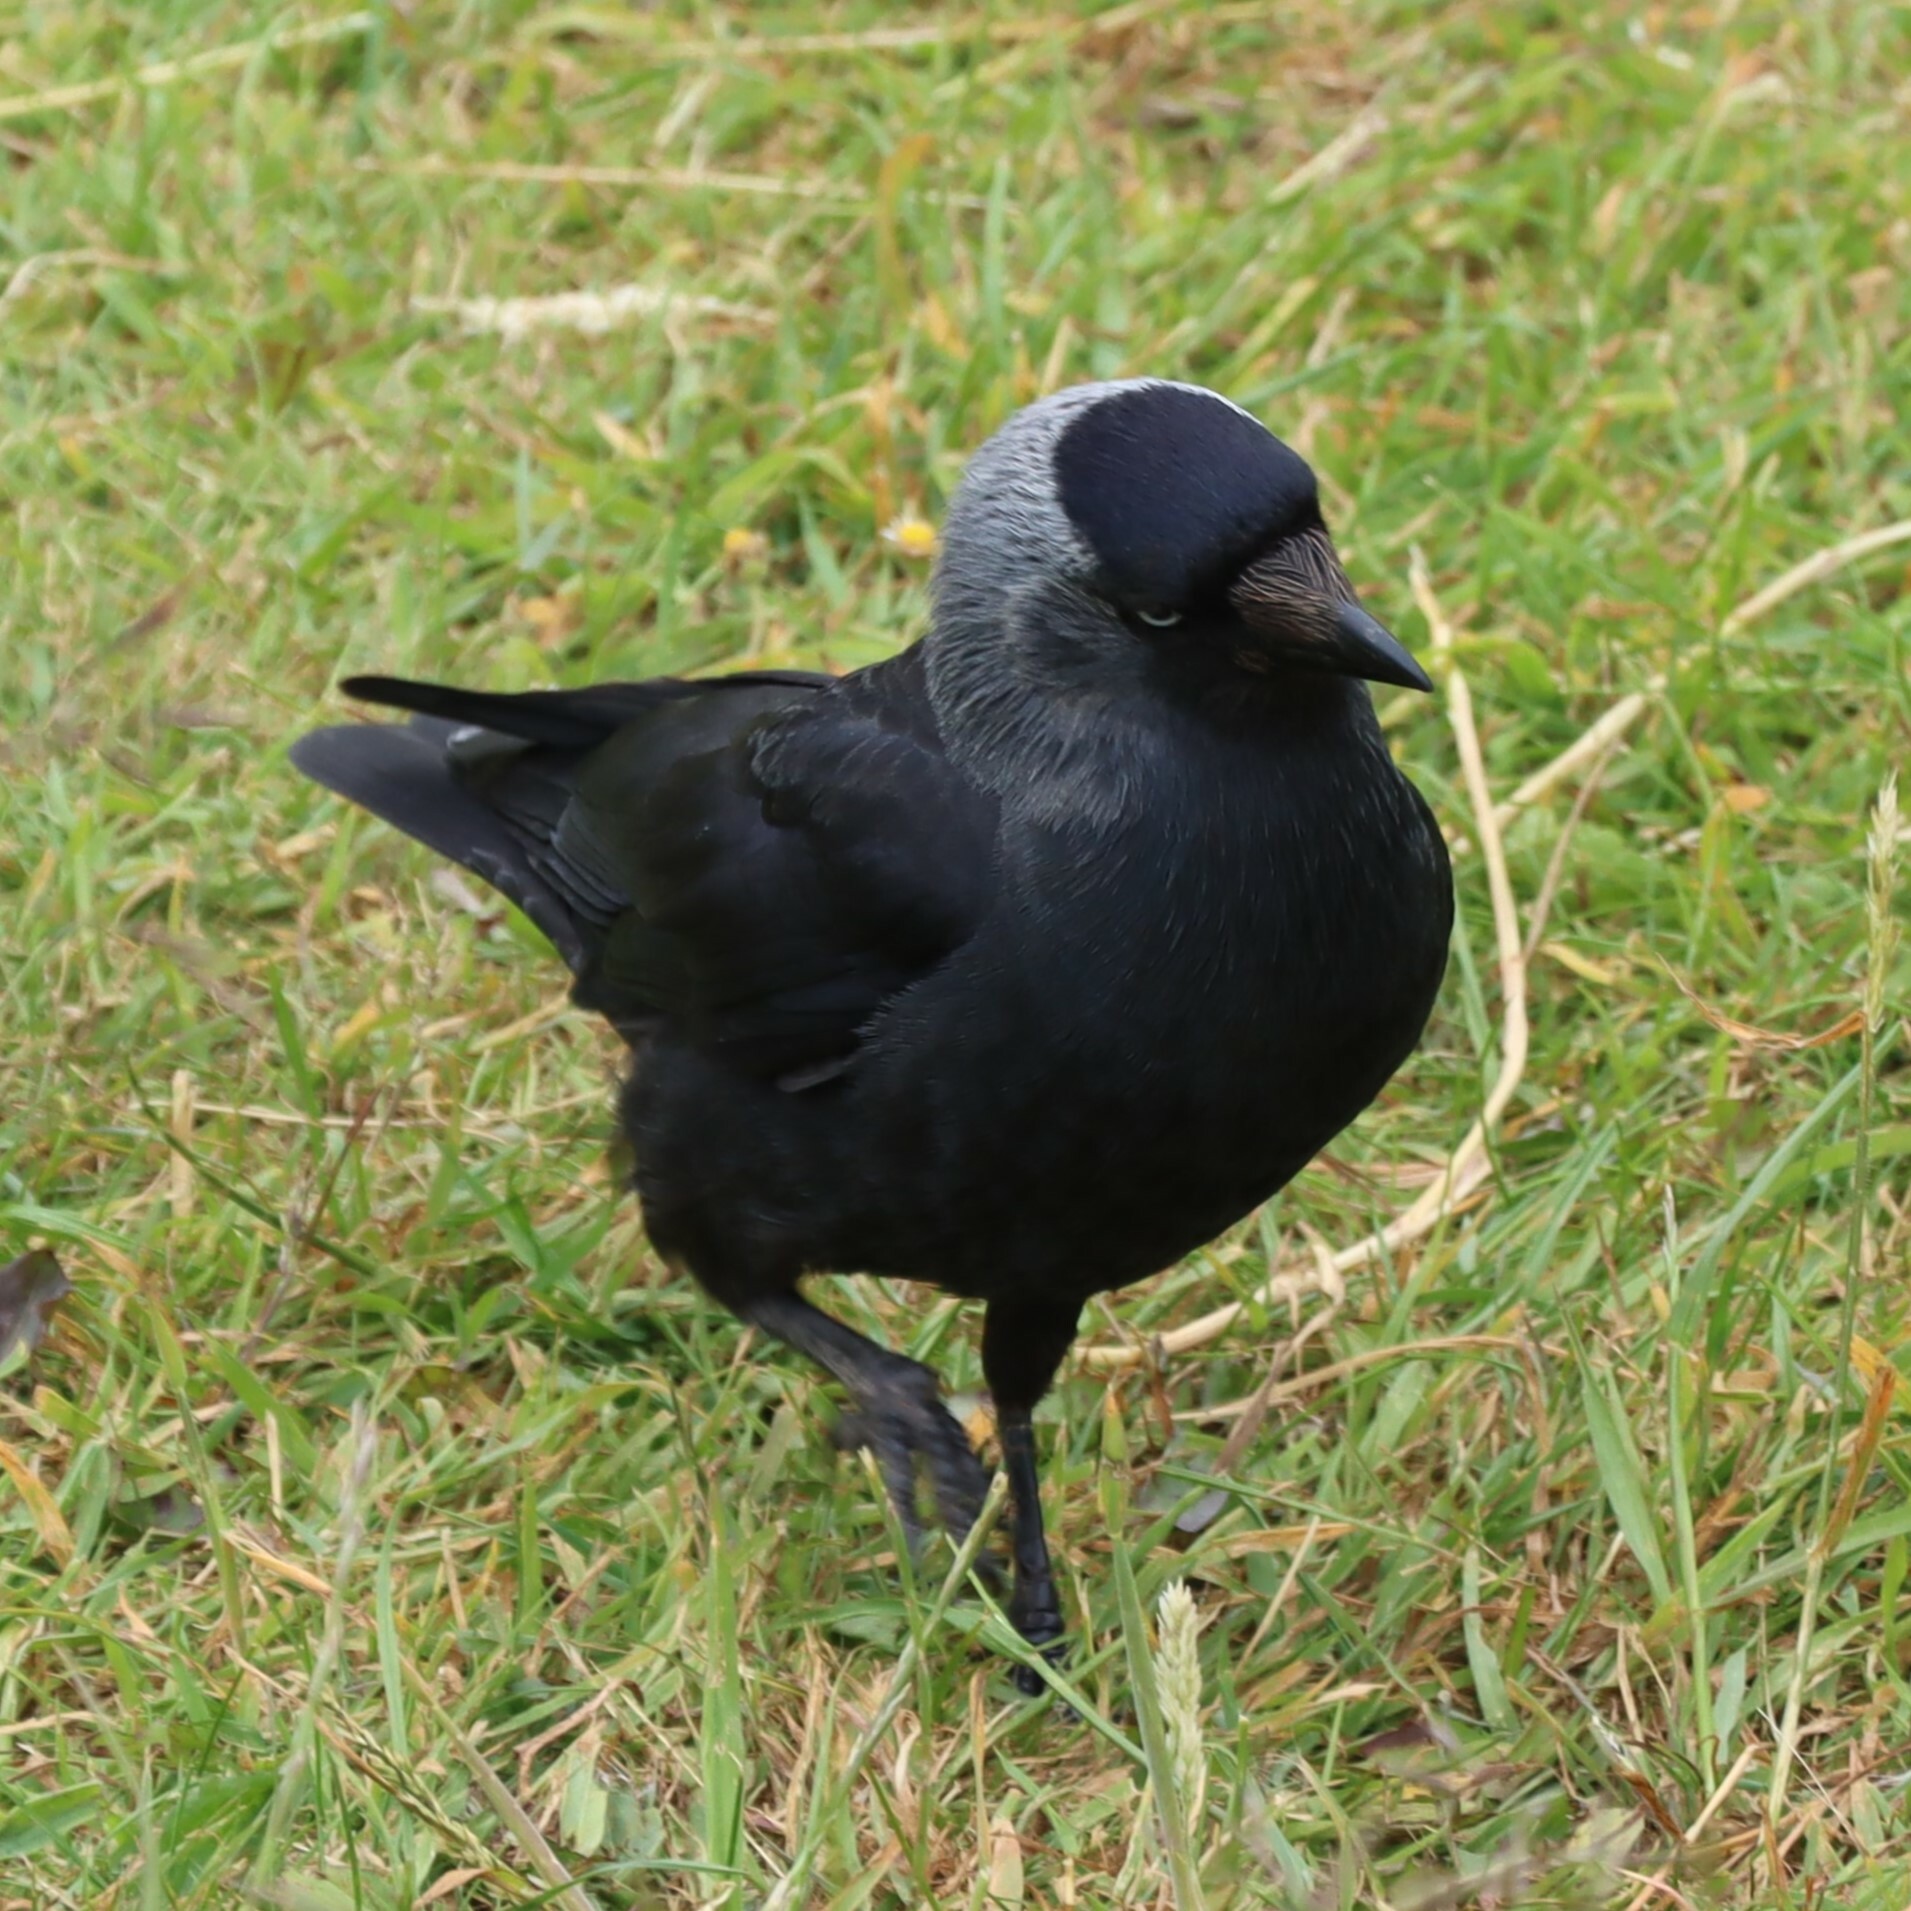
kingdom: Animalia
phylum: Chordata
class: Aves
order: Passeriformes
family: Corvidae
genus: Coloeus
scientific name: Coloeus monedula
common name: Western jackdaw
